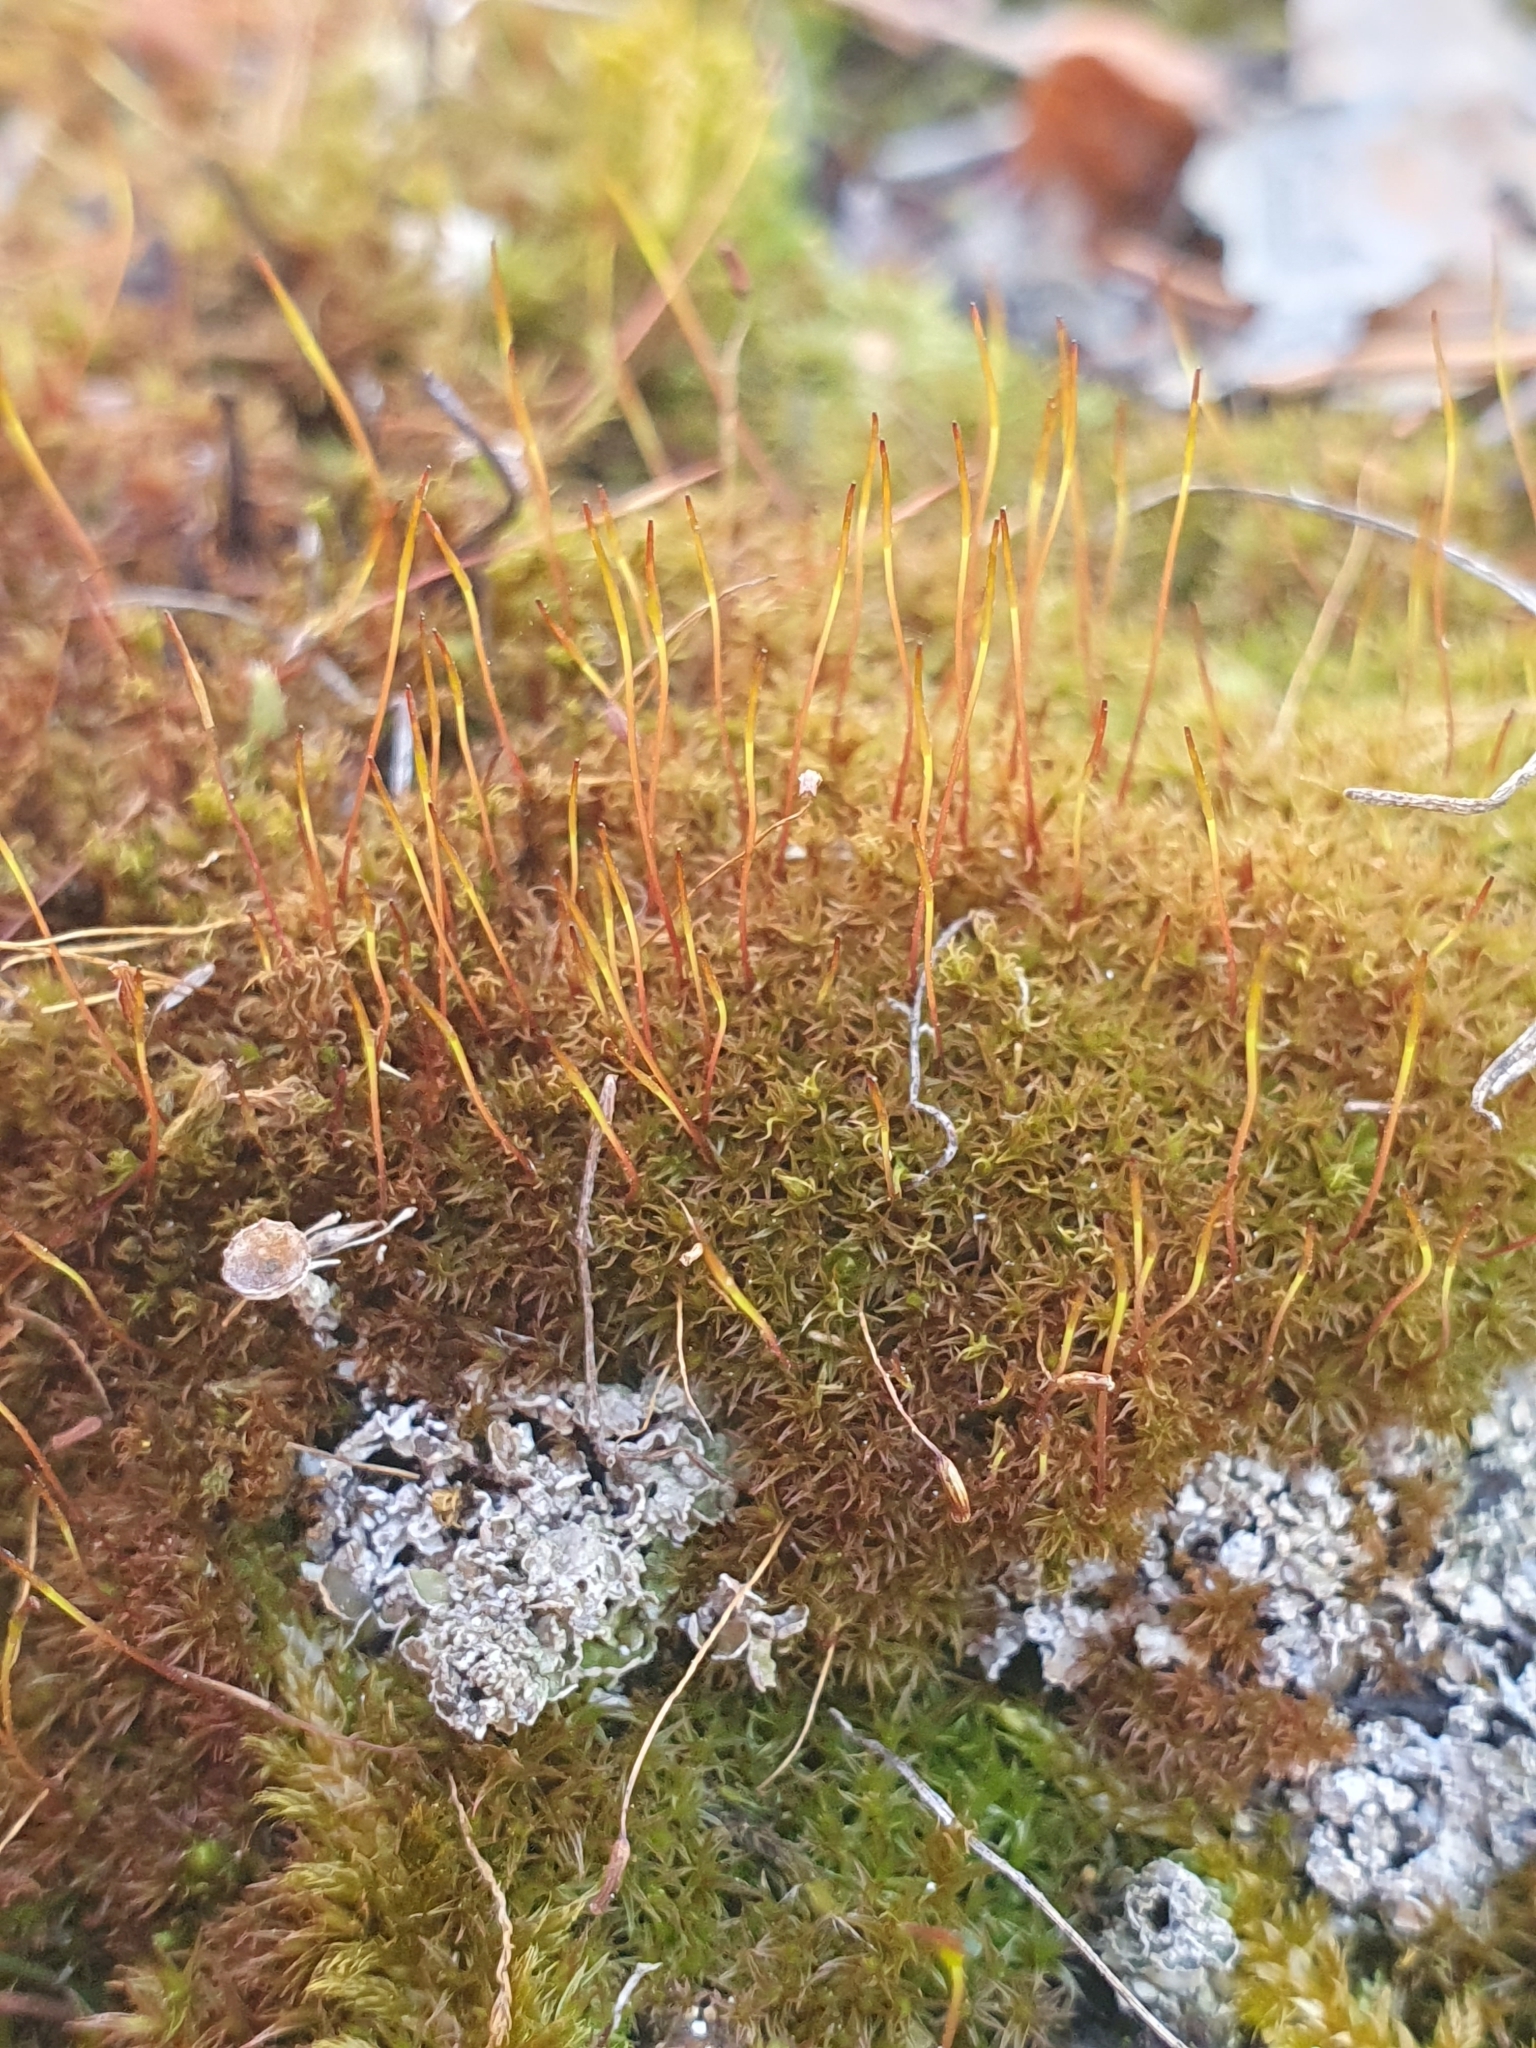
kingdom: Plantae
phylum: Bryophyta
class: Bryopsida
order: Dicranales
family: Ditrichaceae
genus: Ceratodon
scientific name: Ceratodon purpureus
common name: Redshank
